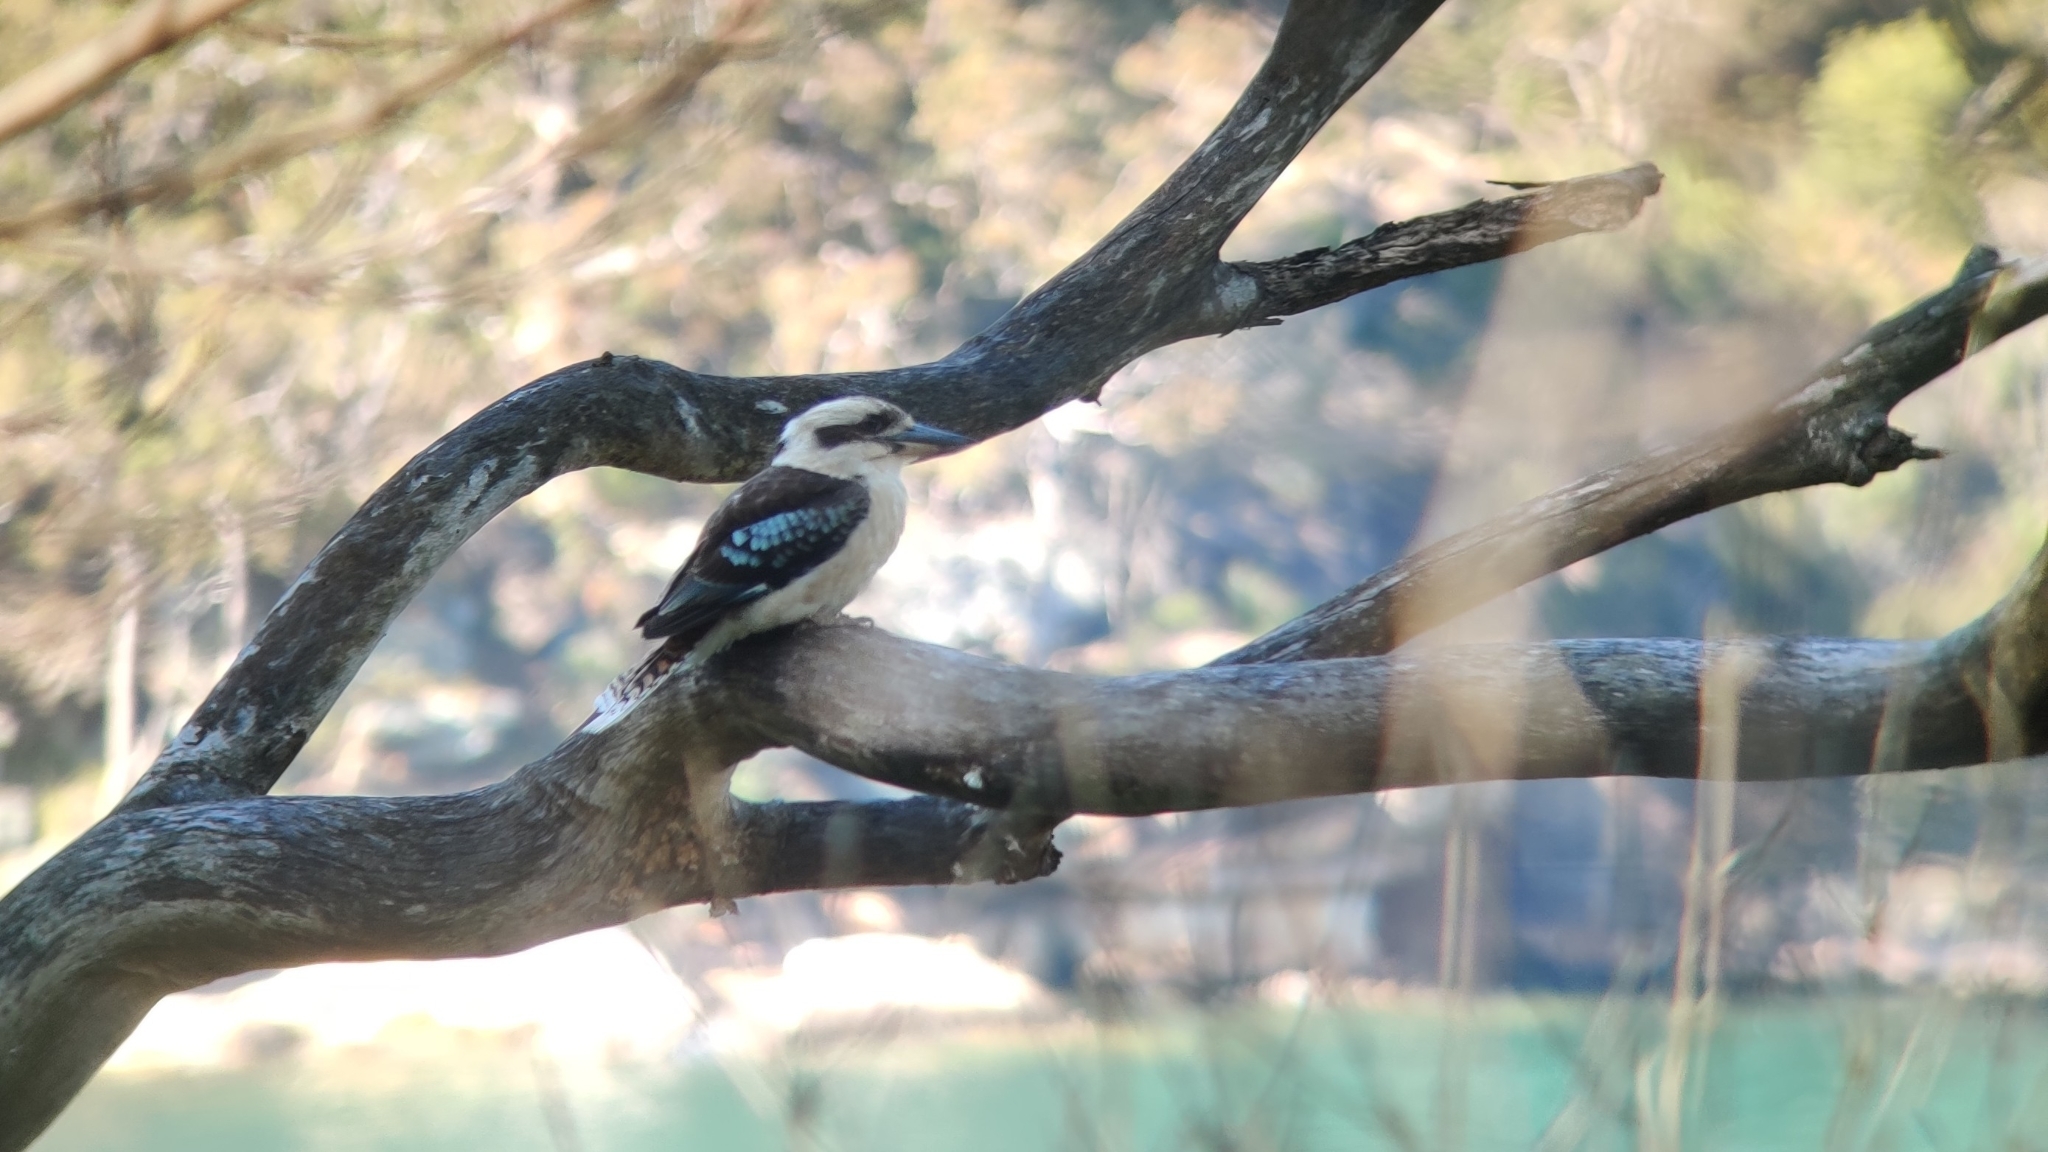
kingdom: Animalia
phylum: Chordata
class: Aves
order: Coraciiformes
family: Alcedinidae
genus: Dacelo
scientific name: Dacelo novaeguineae
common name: Laughing kookaburra
